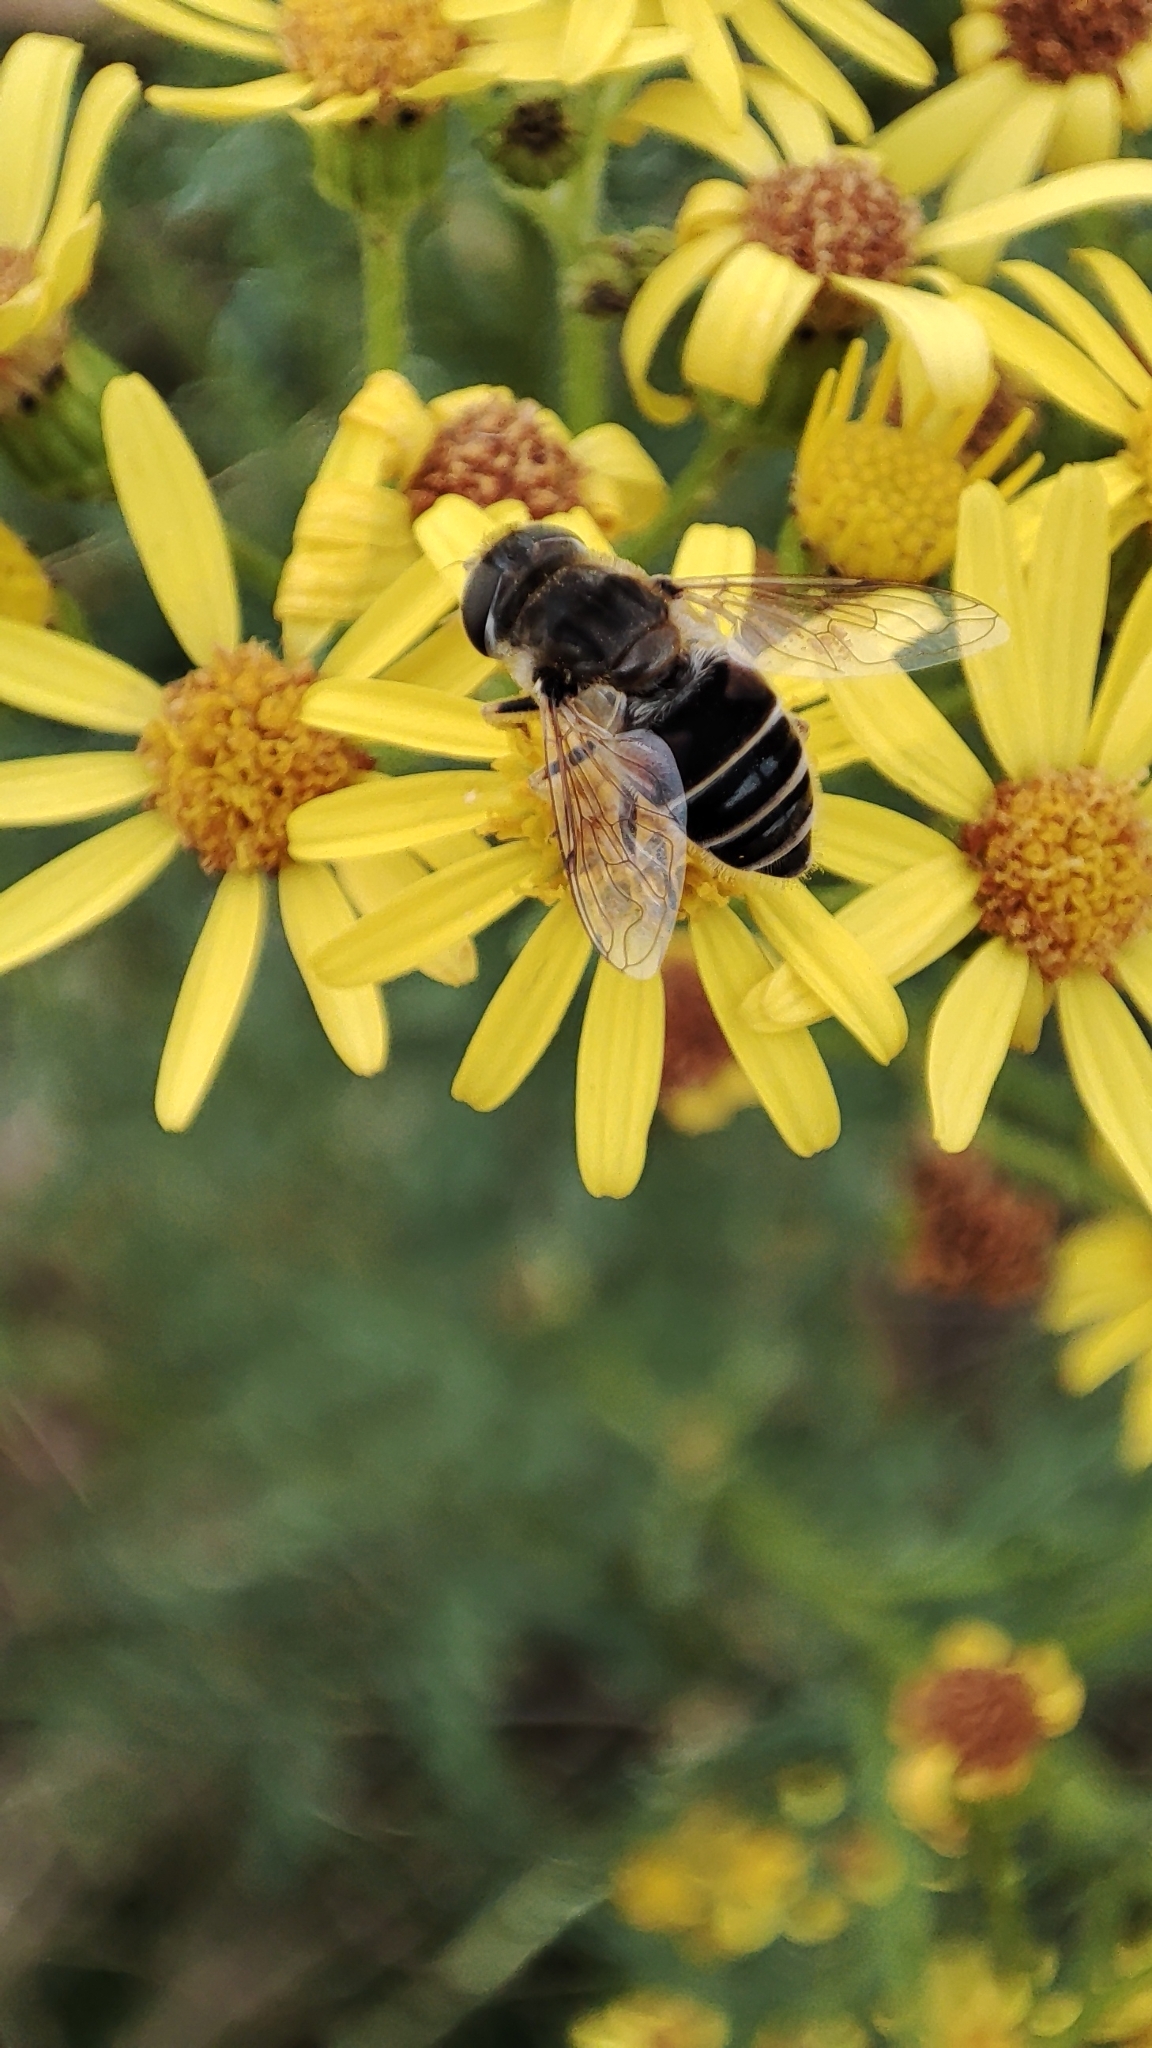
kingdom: Animalia
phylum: Arthropoda
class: Insecta
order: Diptera
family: Syrphidae
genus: Eoseristalis
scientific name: Eoseristalis
